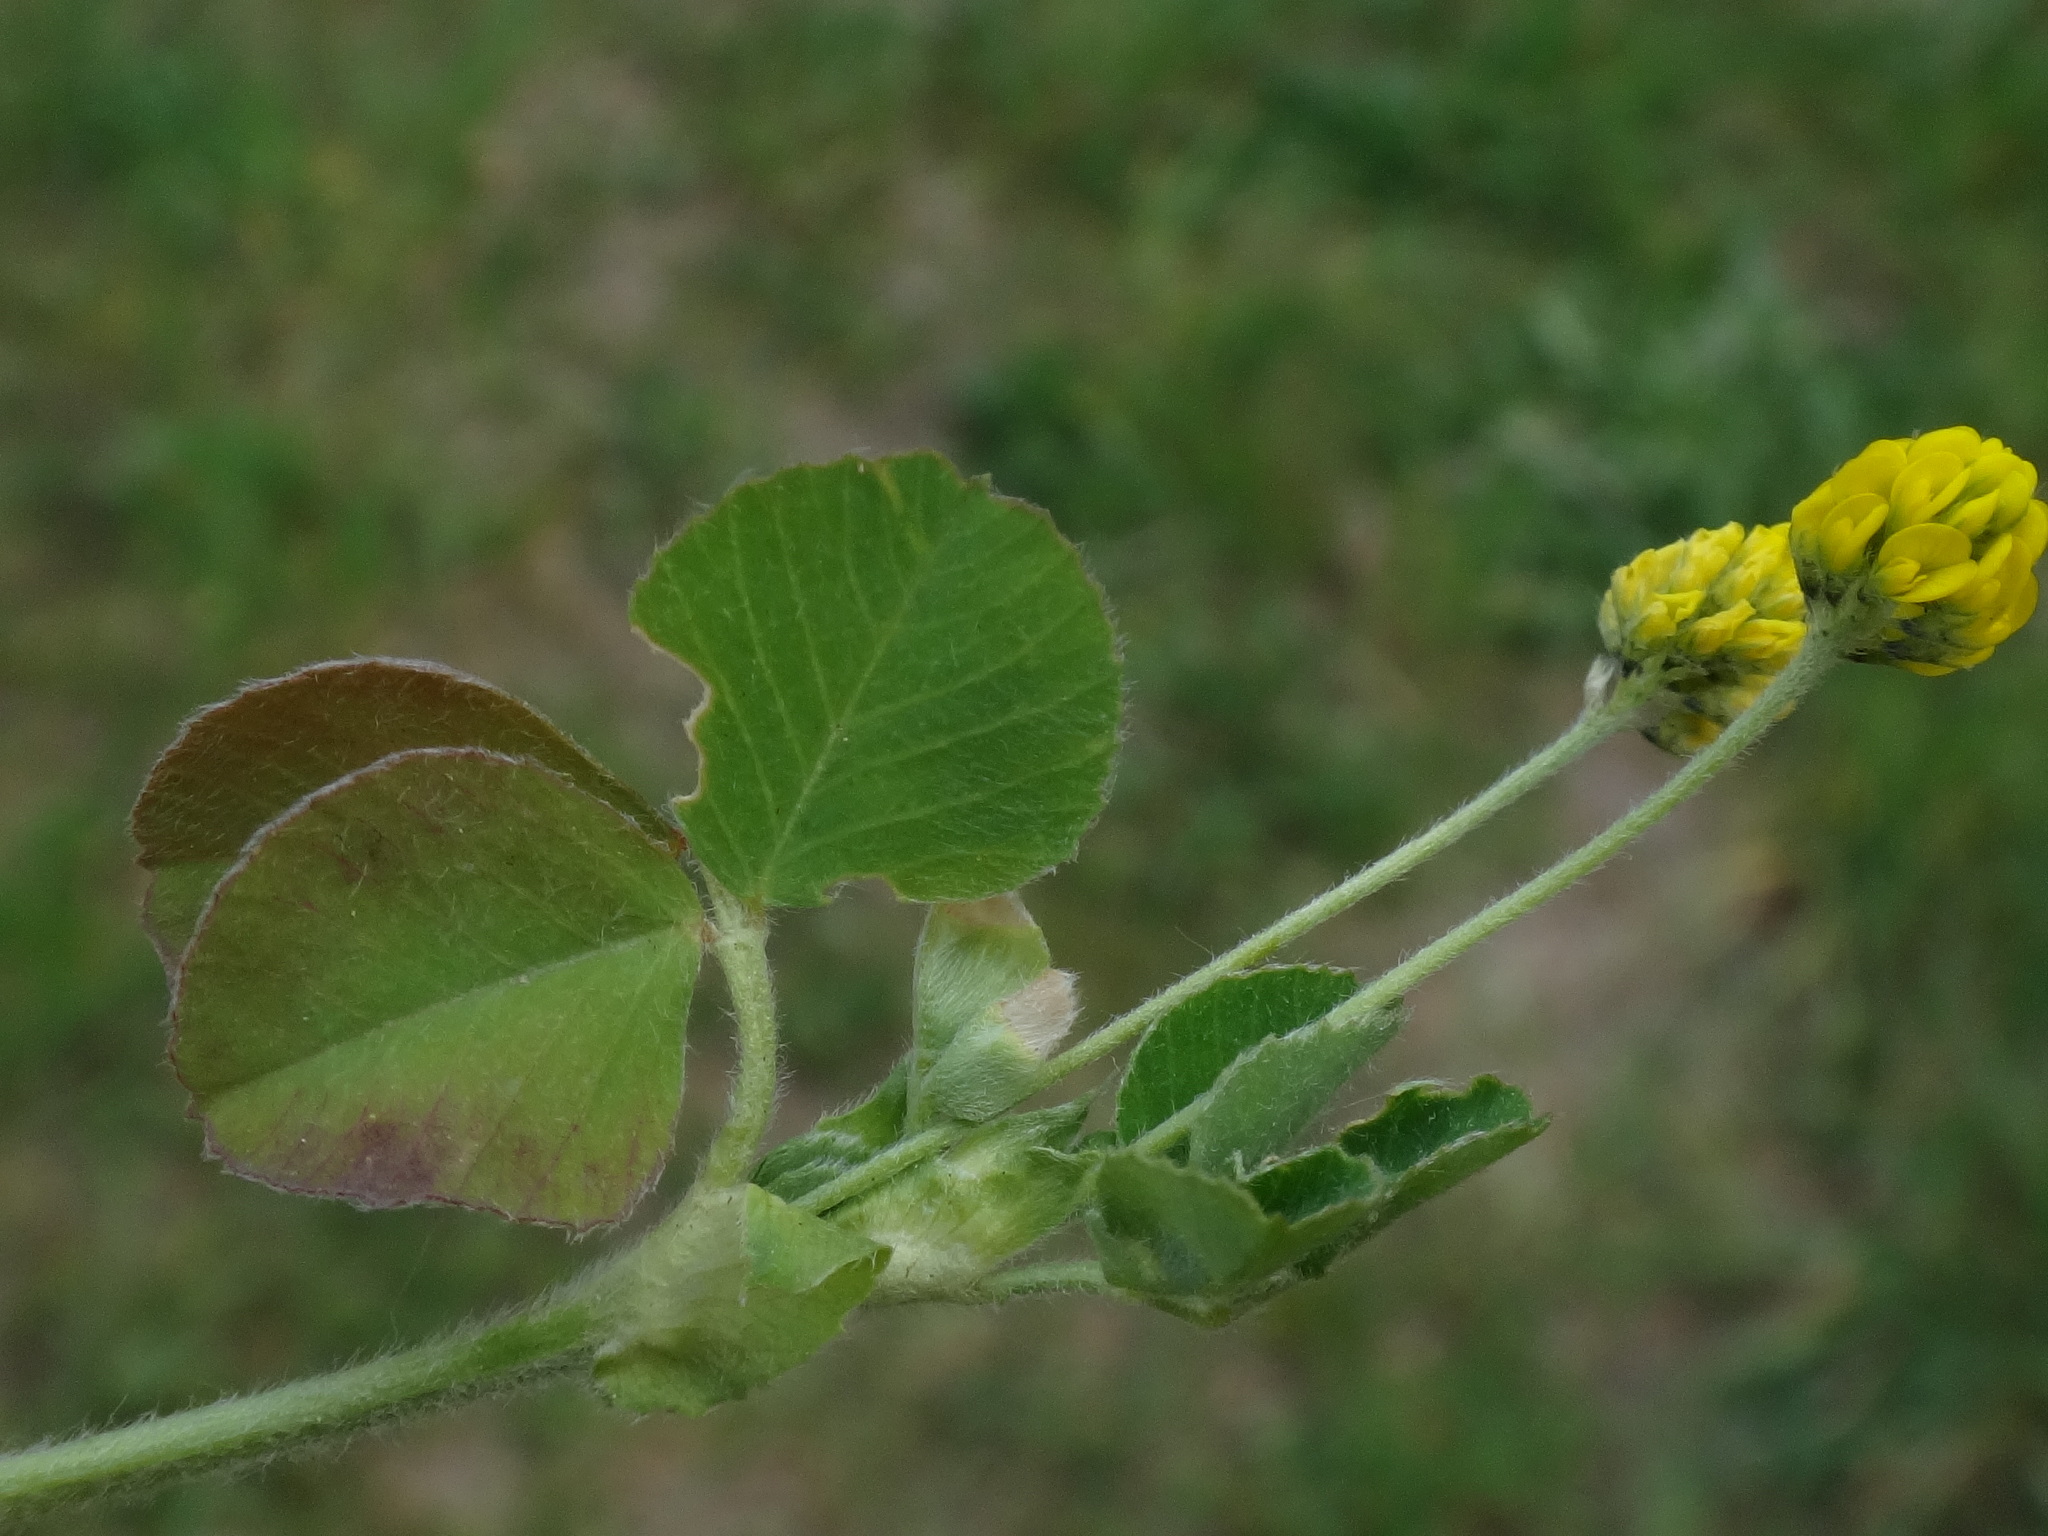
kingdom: Plantae
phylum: Tracheophyta
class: Magnoliopsida
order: Fabales
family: Fabaceae
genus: Medicago
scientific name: Medicago lupulina
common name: Black medick
